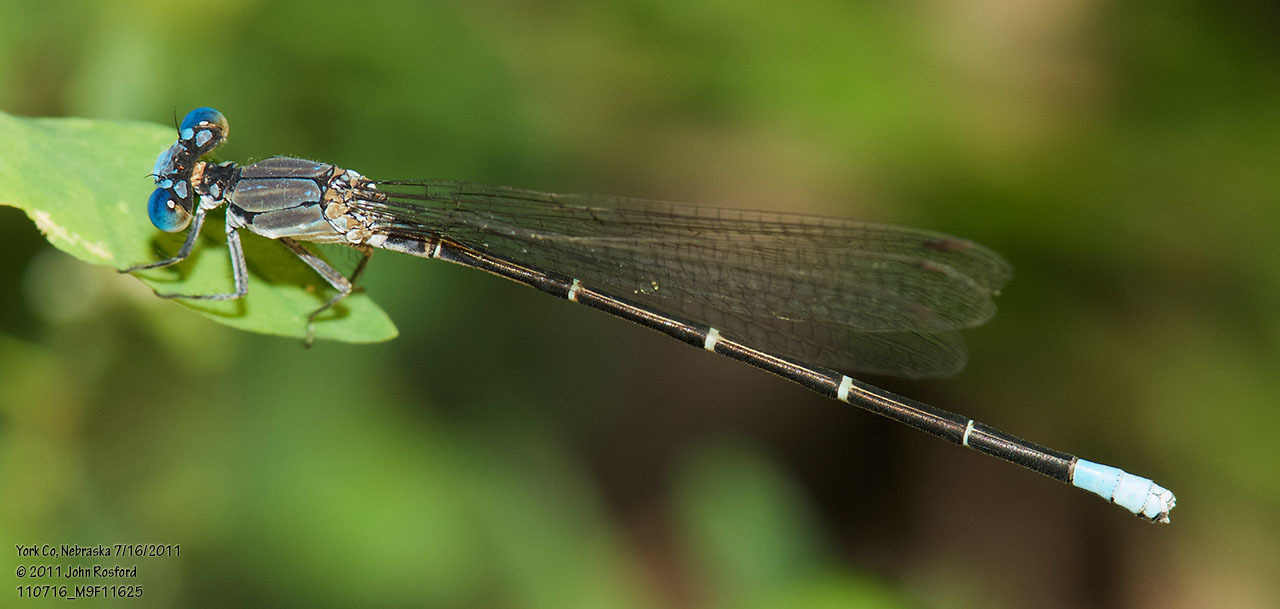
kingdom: Animalia
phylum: Arthropoda
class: Insecta
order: Odonata
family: Coenagrionidae
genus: Argia
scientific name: Argia apicalis
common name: Blue-fronted dancer
